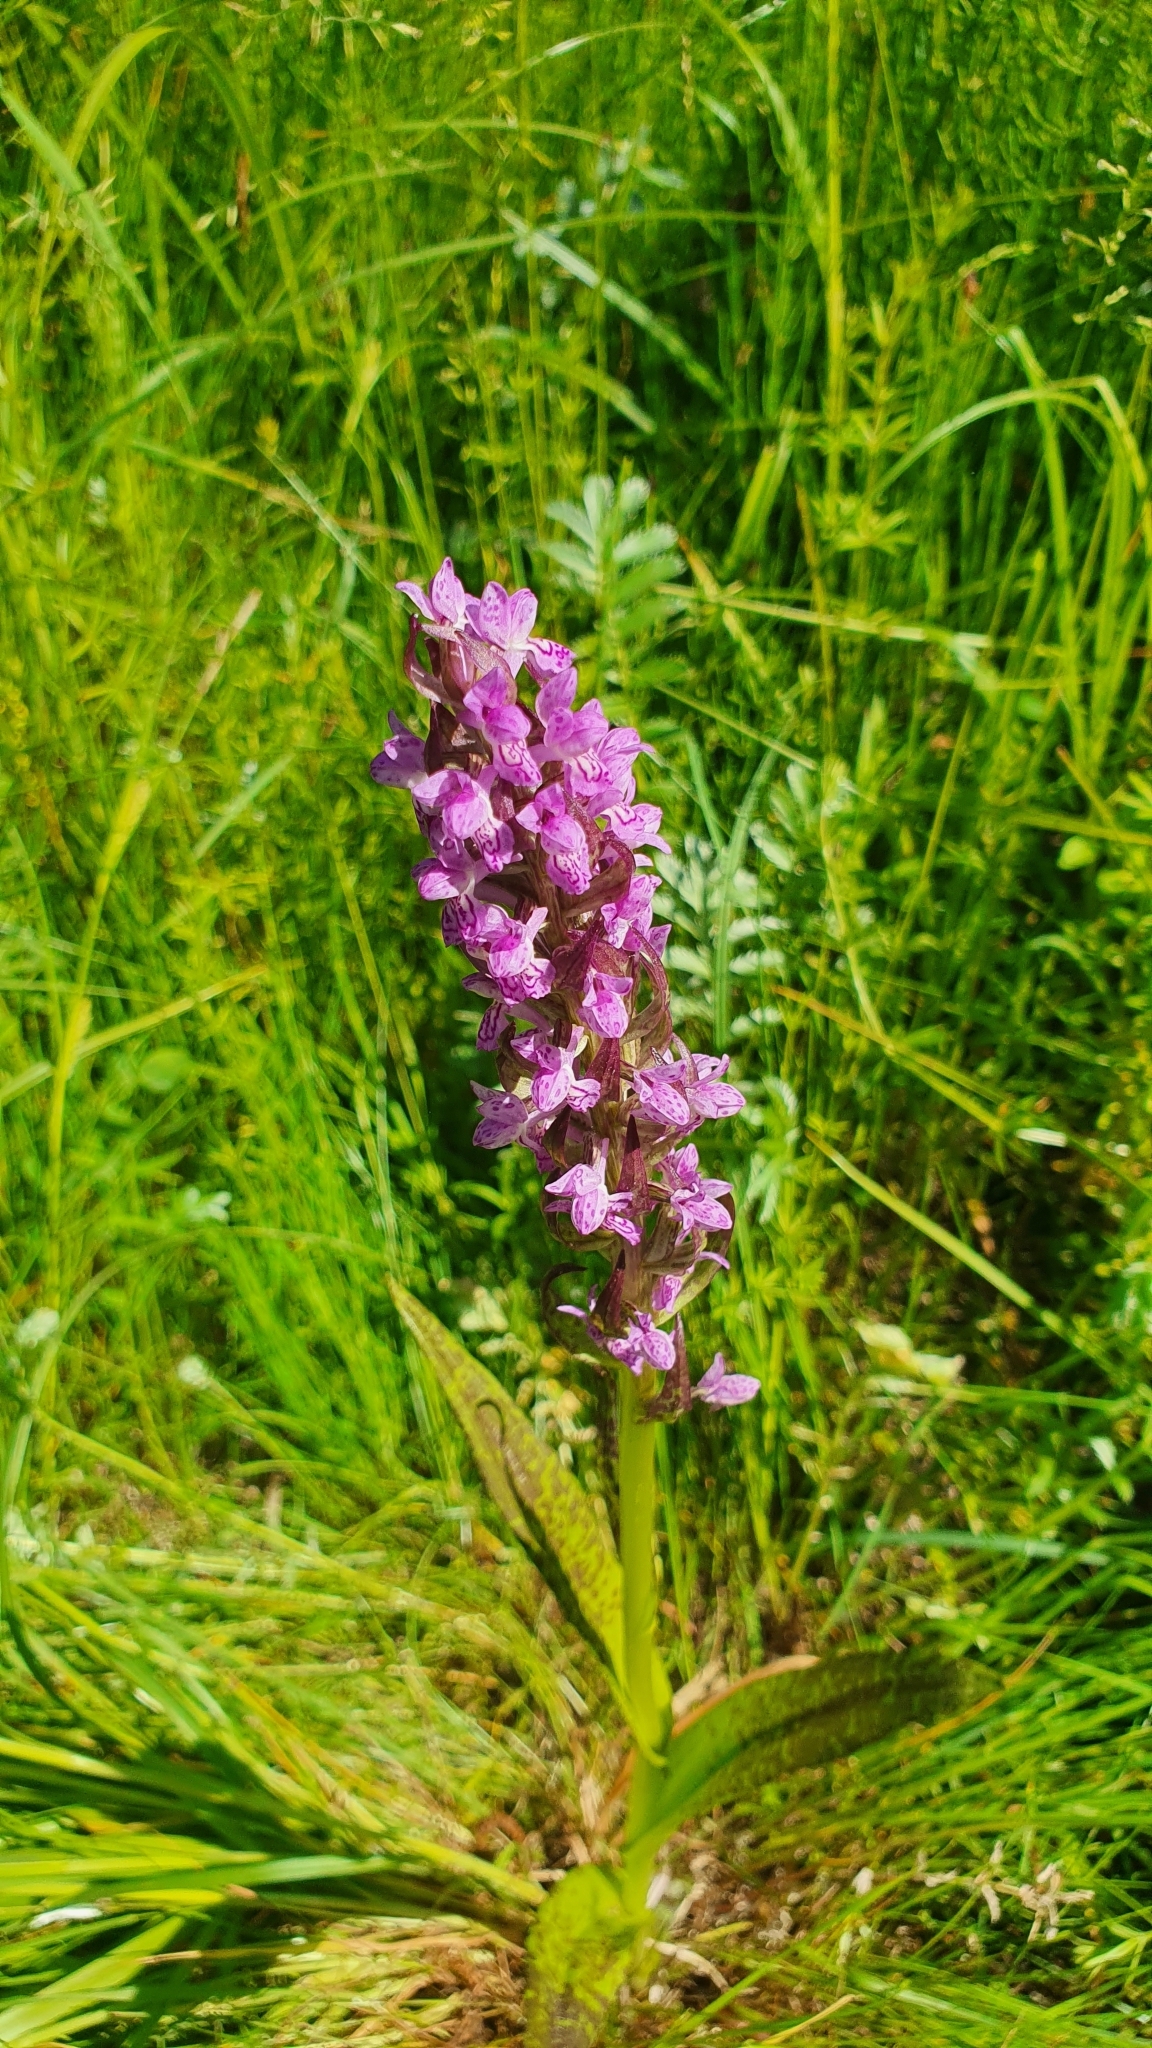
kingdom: Plantae
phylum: Tracheophyta
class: Liliopsida
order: Asparagales
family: Orchidaceae
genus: Dactylorhiza
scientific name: Dactylorhiza incarnata
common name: Early marsh-orchid
